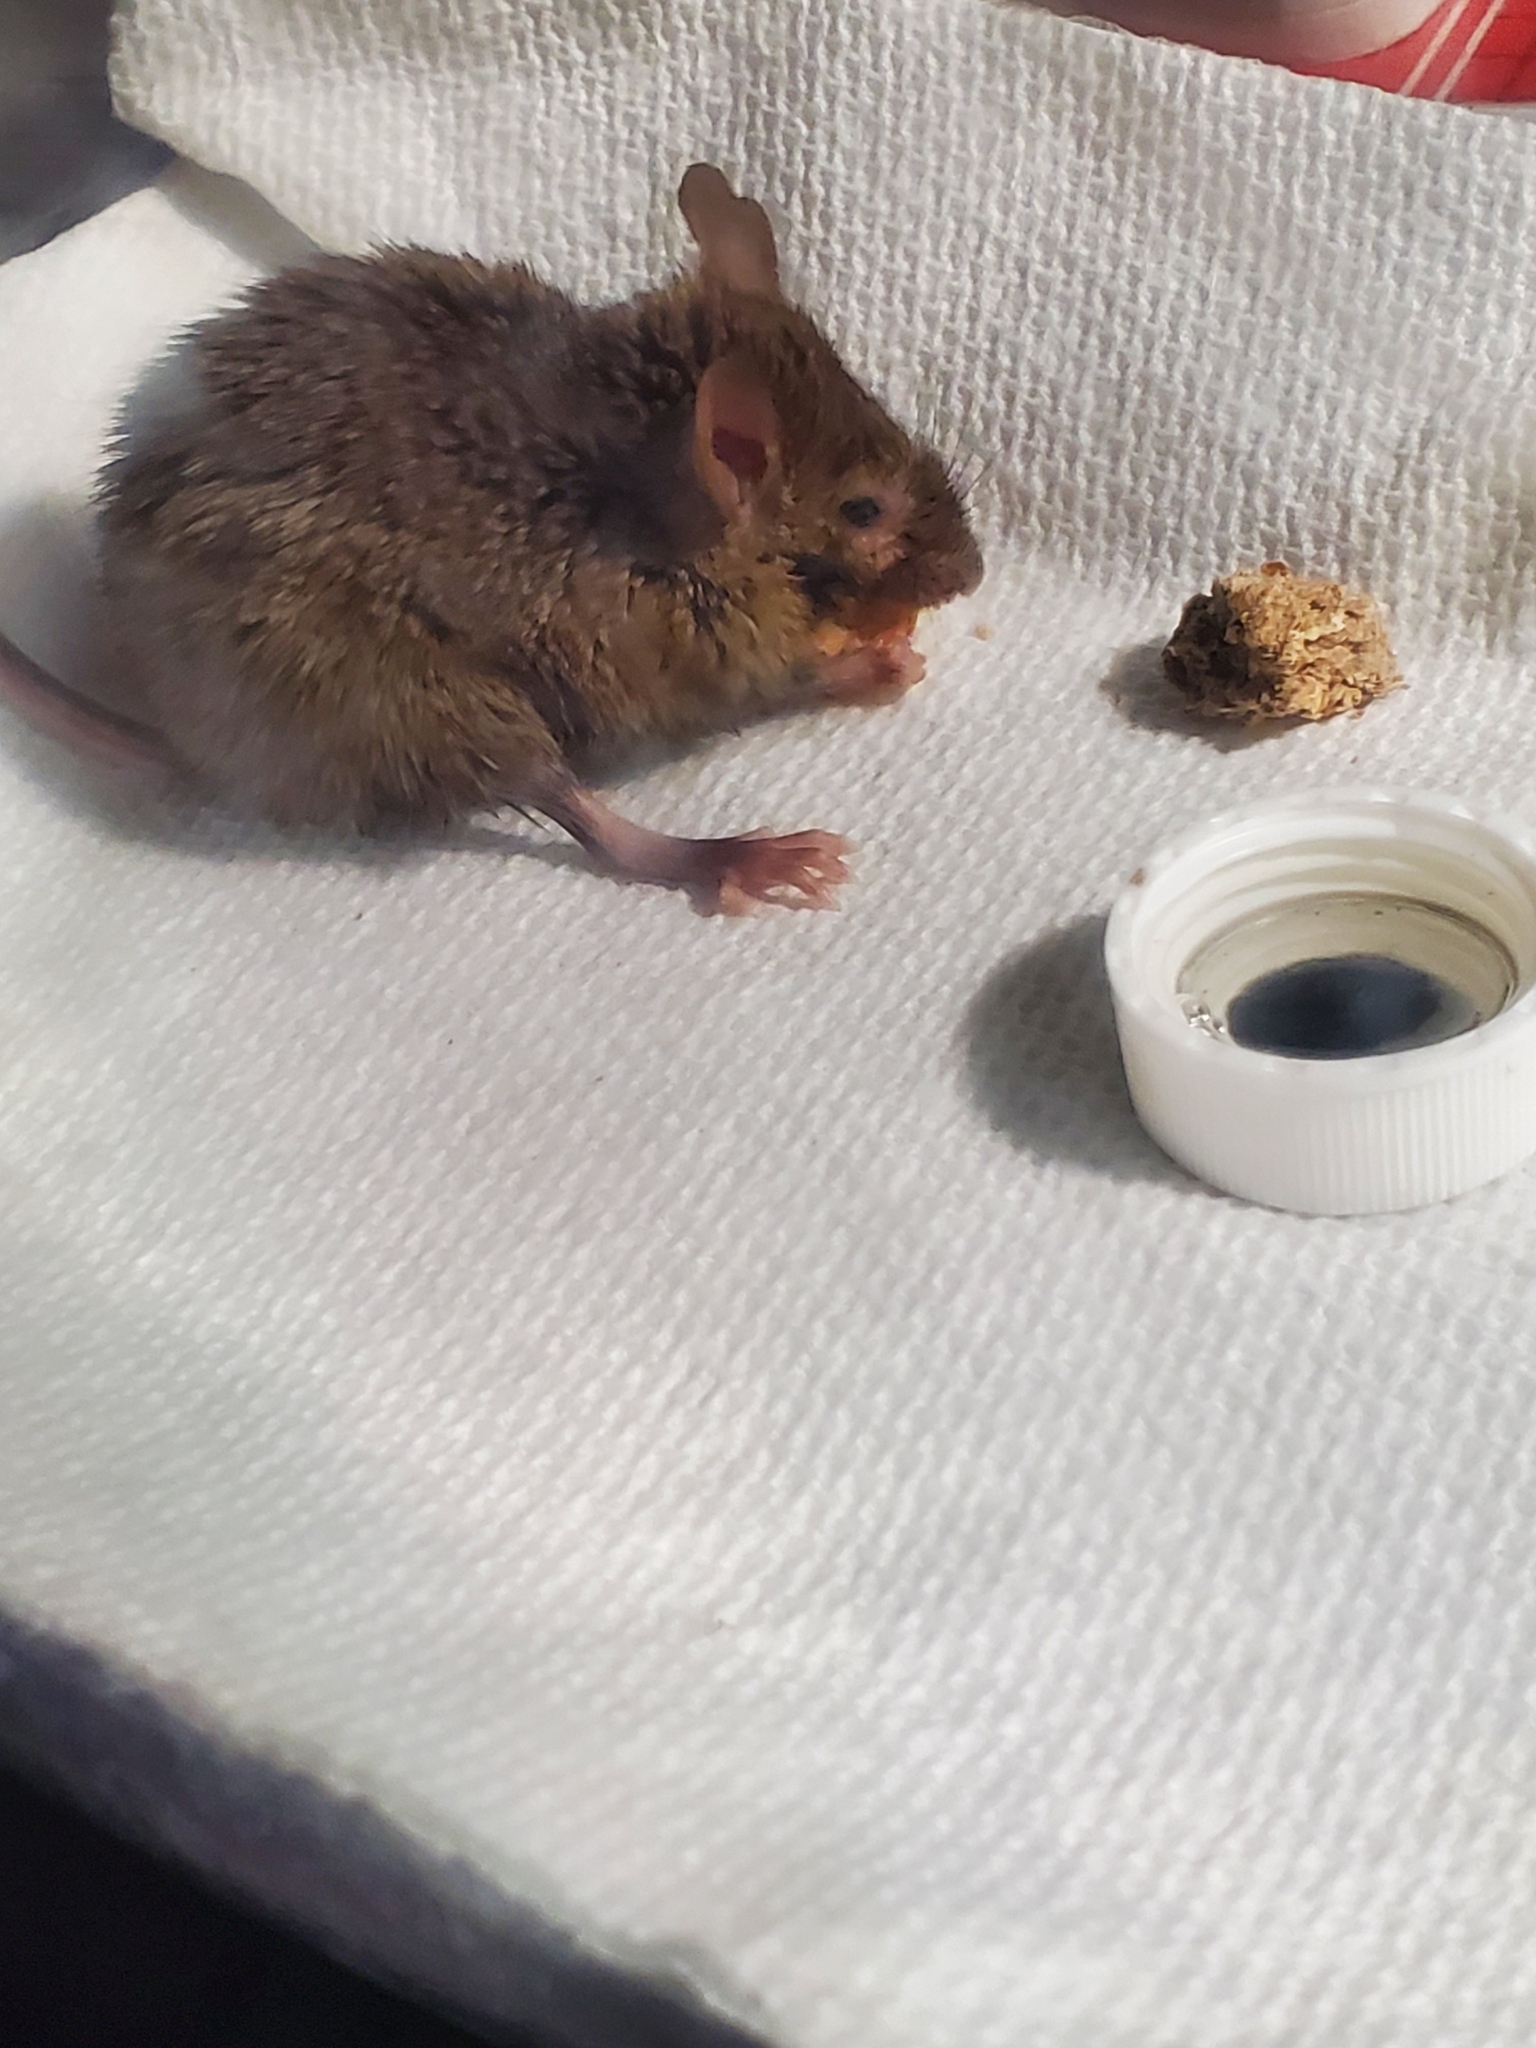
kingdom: Animalia
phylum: Chordata
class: Mammalia
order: Rodentia
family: Muridae
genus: Mus
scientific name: Mus musculus
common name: House mouse
